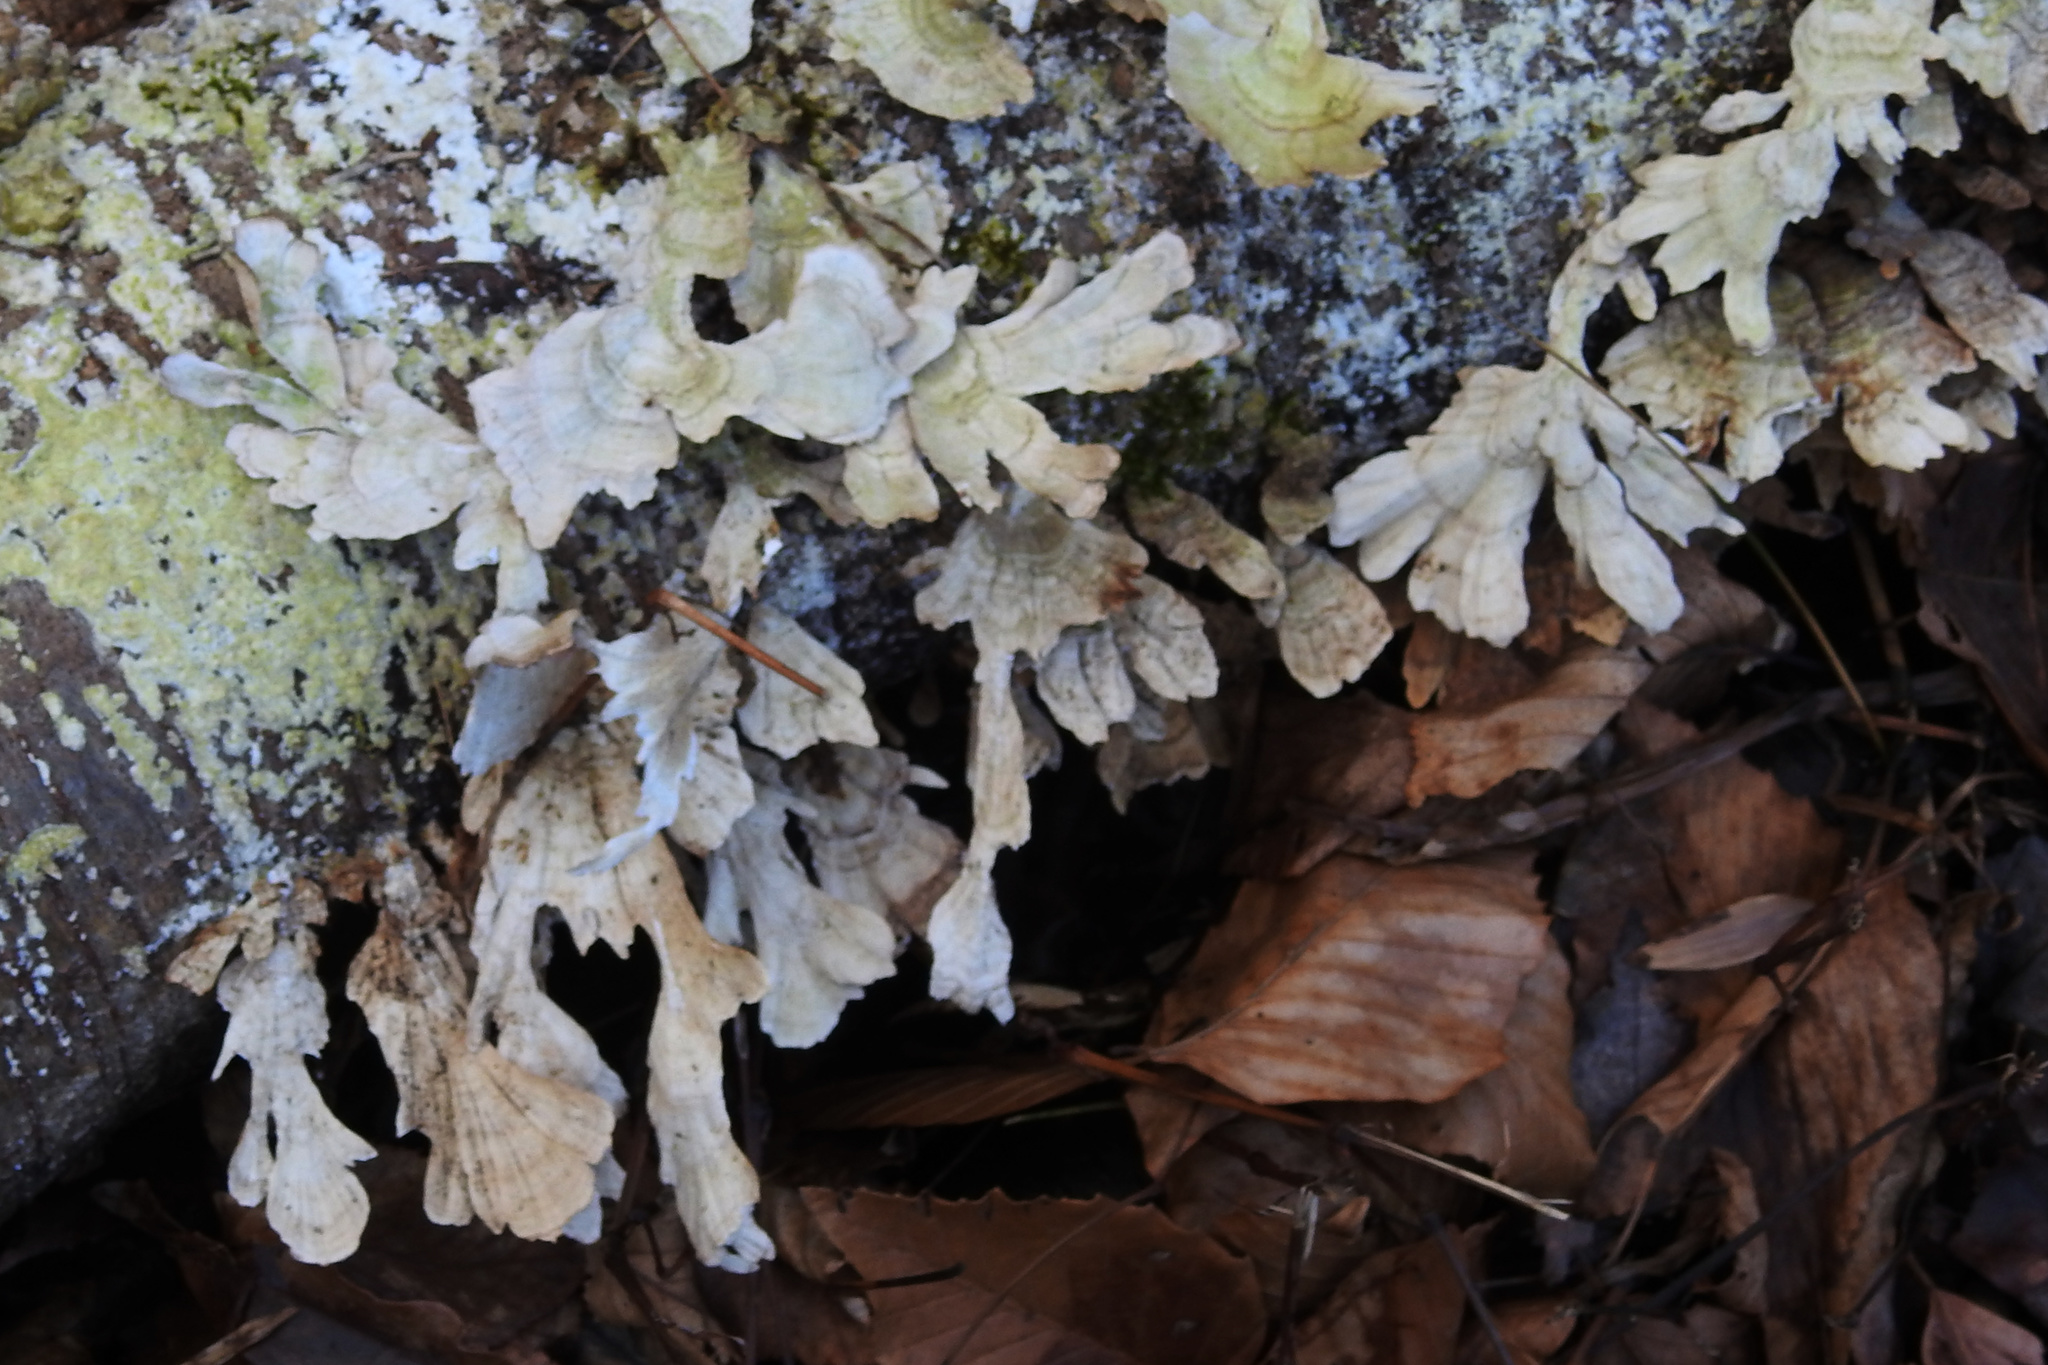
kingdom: Fungi
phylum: Basidiomycota
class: Agaricomycetes
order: Hymenochaetales
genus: Trichaptum
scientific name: Trichaptum biforme
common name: Violet-toothed polypore
